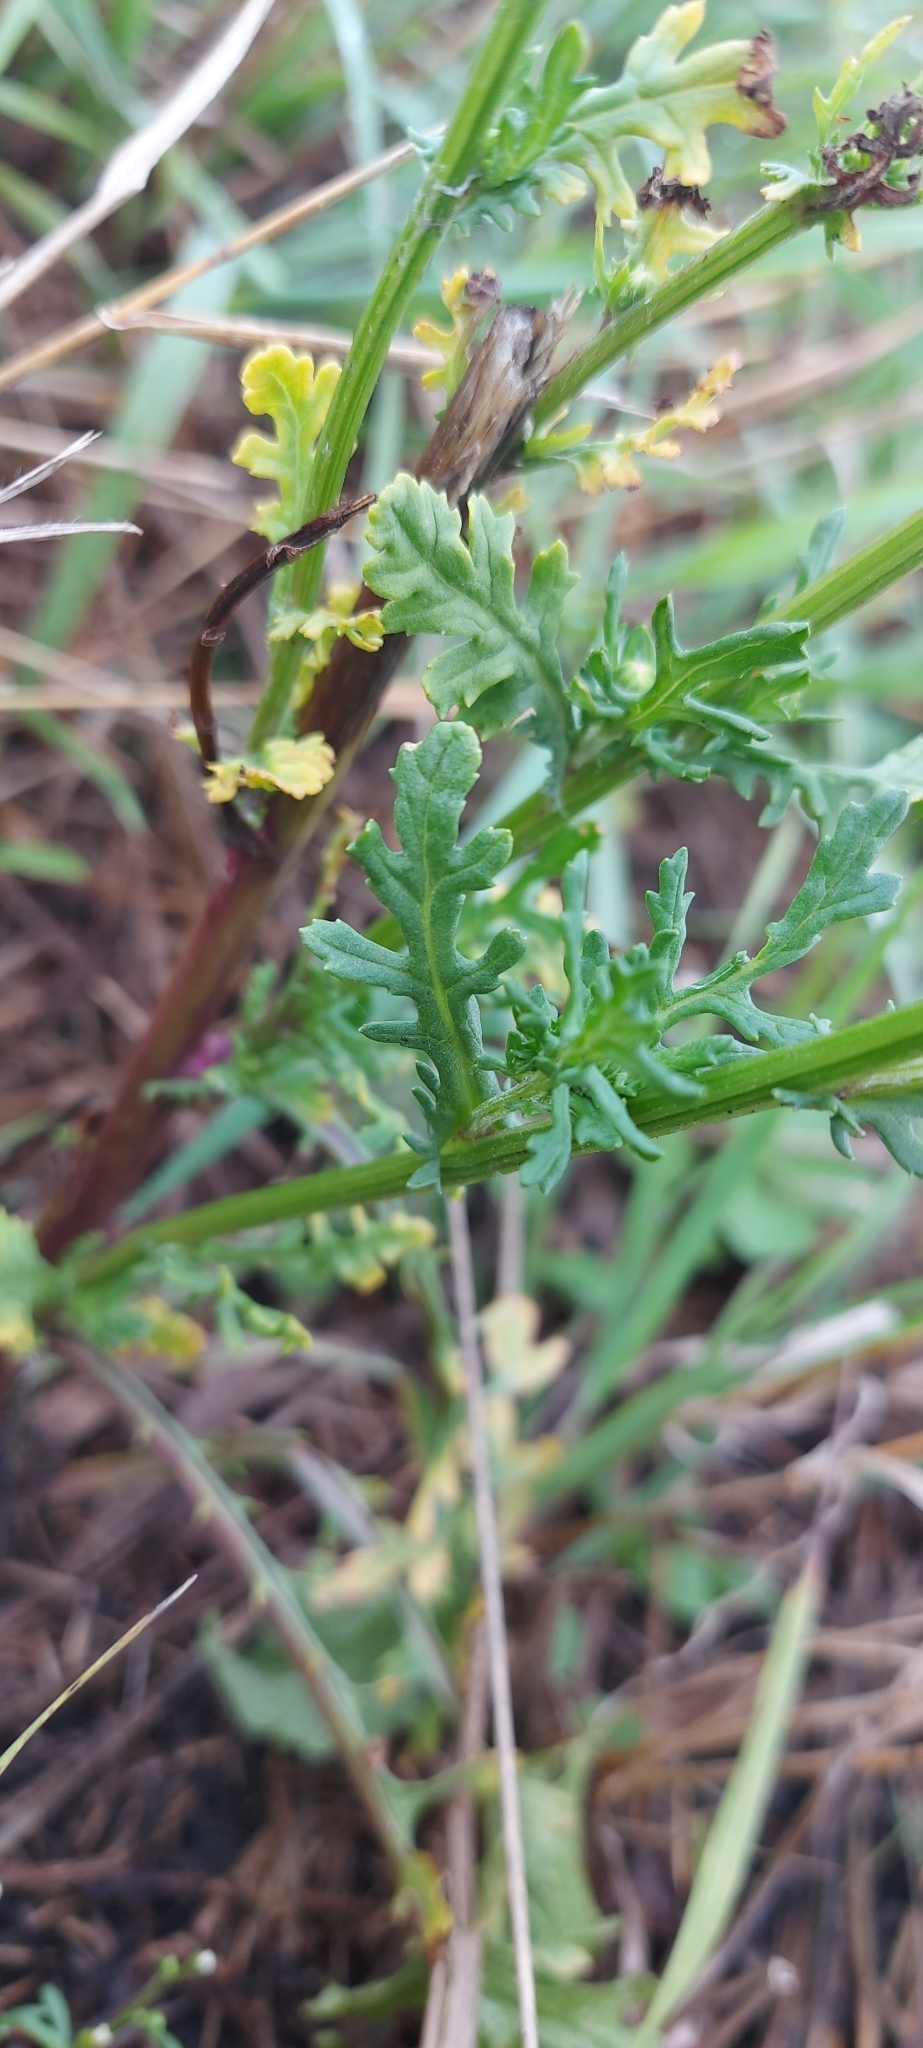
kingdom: Plantae
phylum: Tracheophyta
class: Magnoliopsida
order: Asterales
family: Asteraceae
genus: Jacobaea
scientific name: Jacobaea vulgaris
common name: Stinking willie
